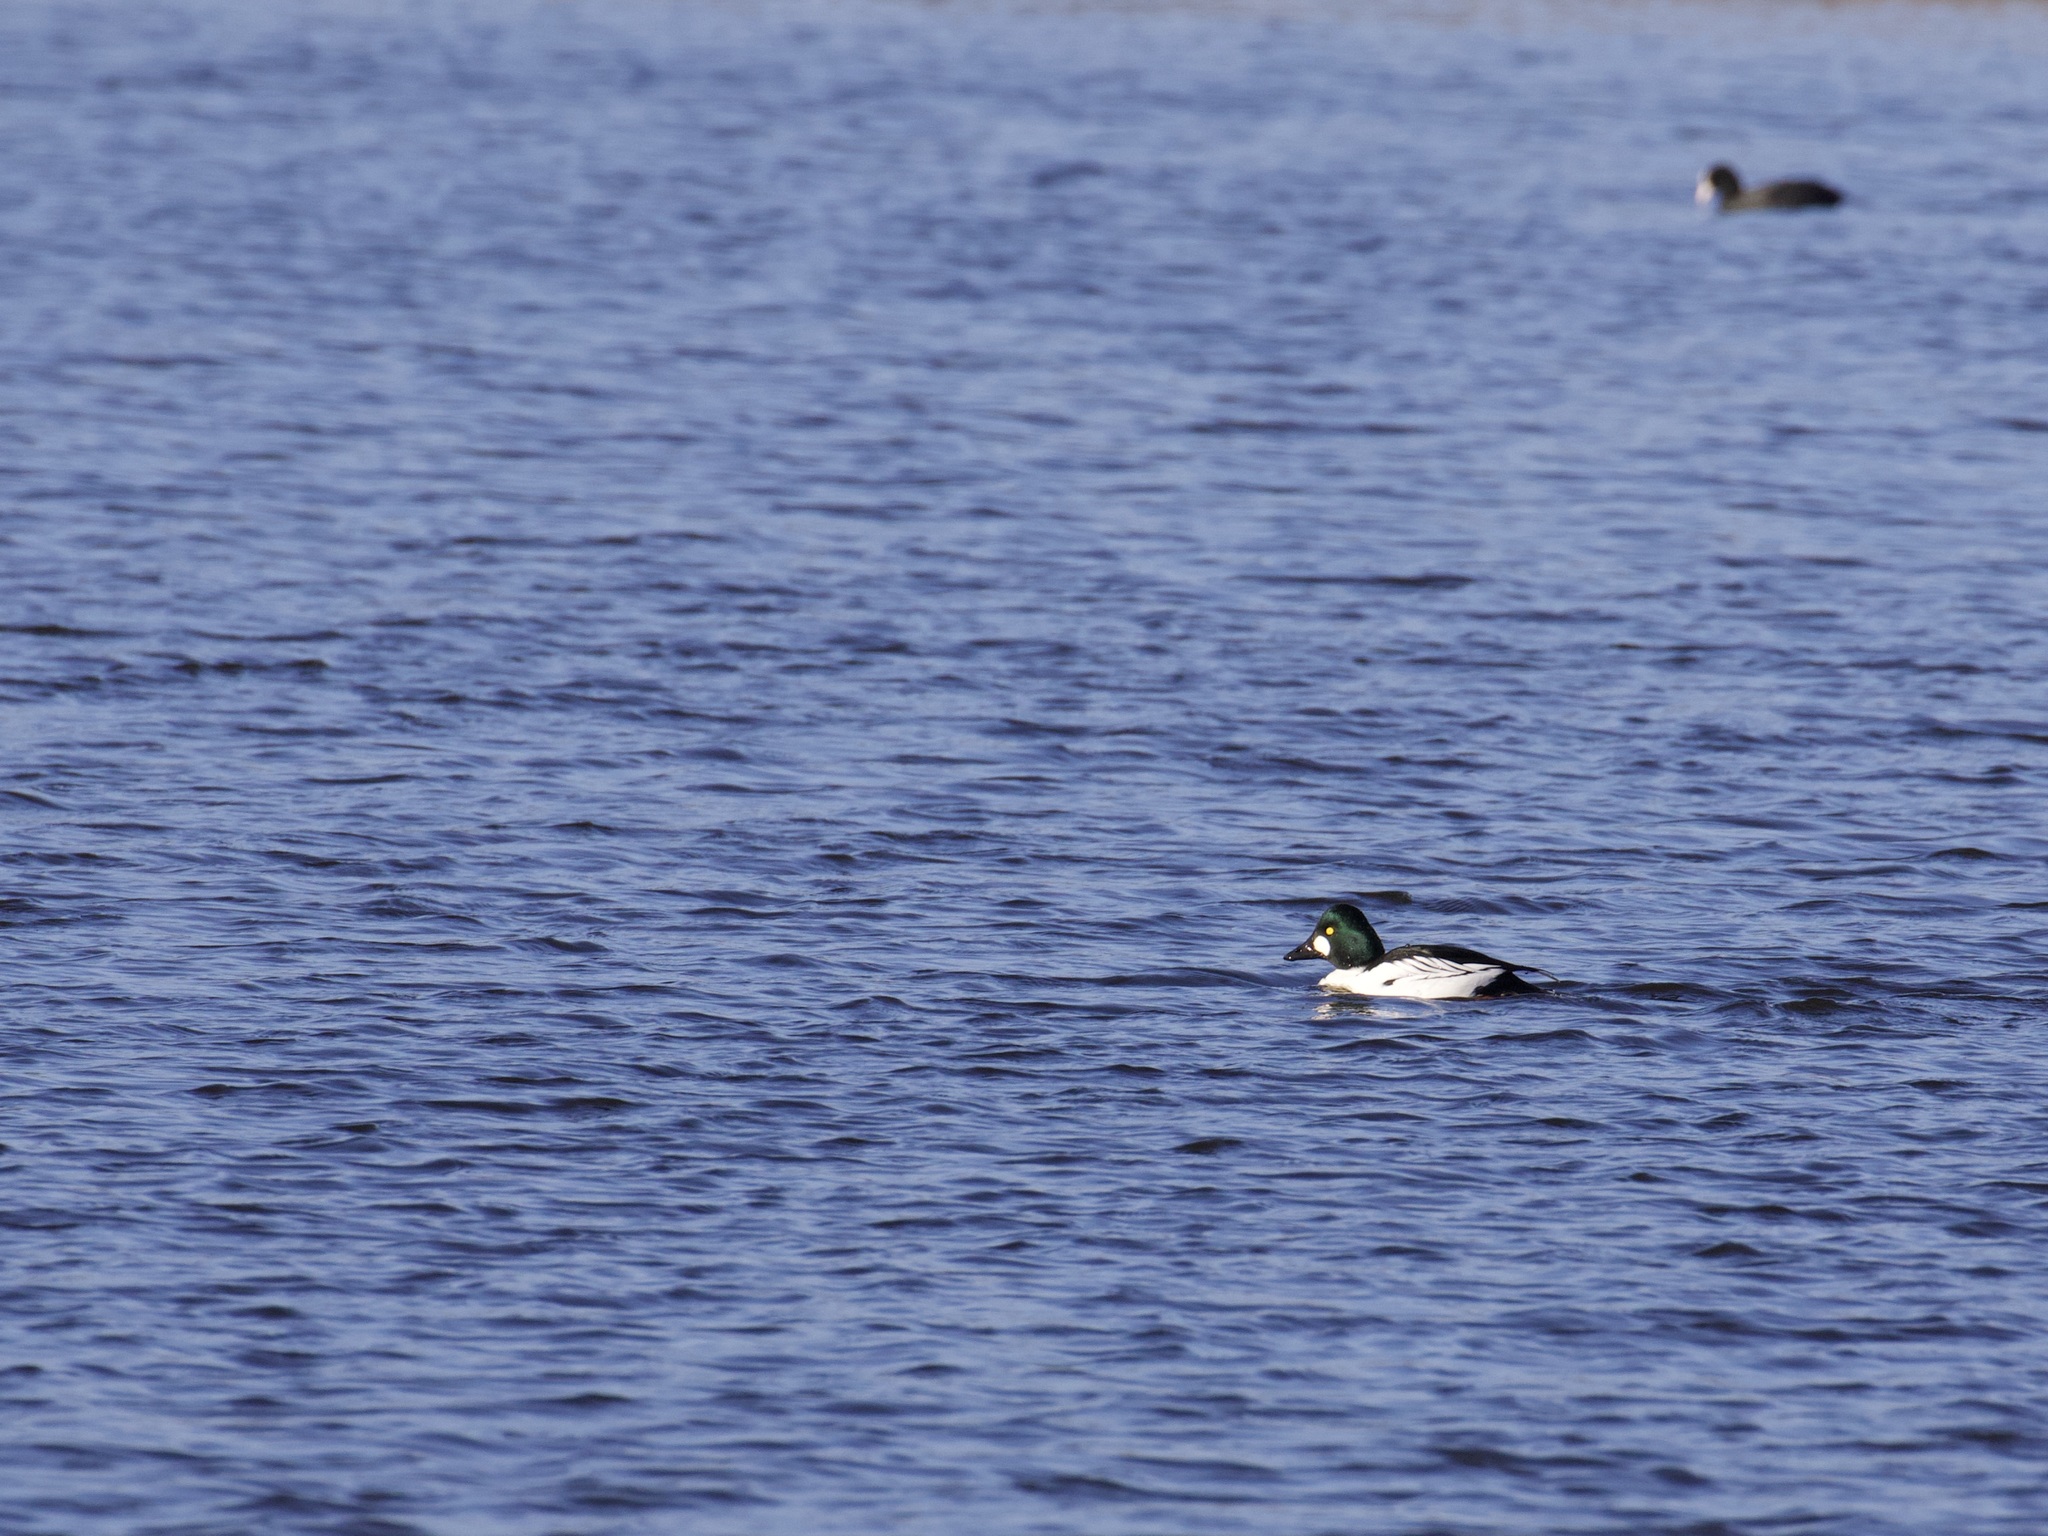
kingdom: Animalia
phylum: Chordata
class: Aves
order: Anseriformes
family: Anatidae
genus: Bucephala
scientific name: Bucephala clangula
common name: Common goldeneye
